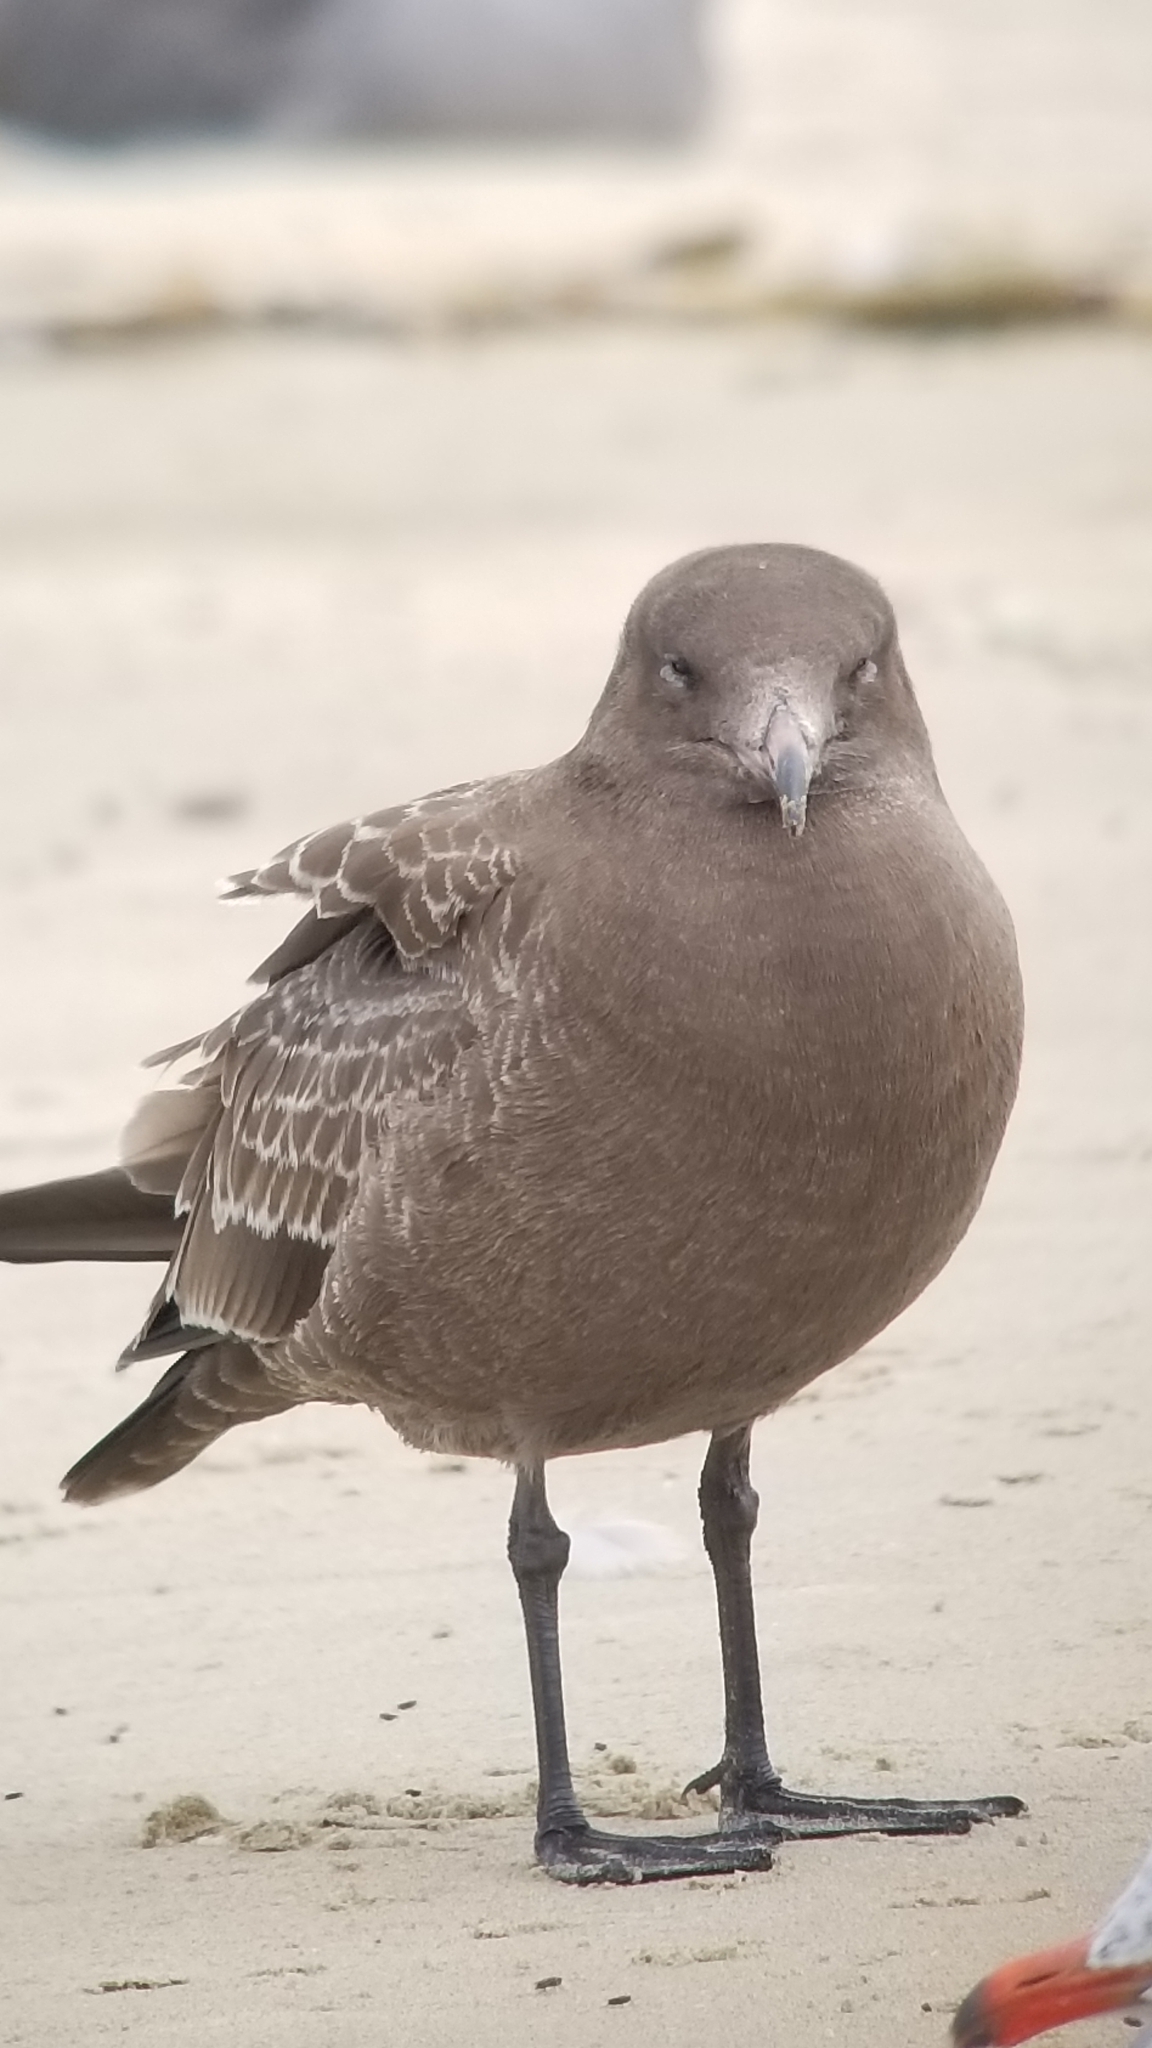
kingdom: Animalia
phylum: Chordata
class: Aves
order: Charadriiformes
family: Laridae
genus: Larus
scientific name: Larus heermanni
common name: Heermann's gull
